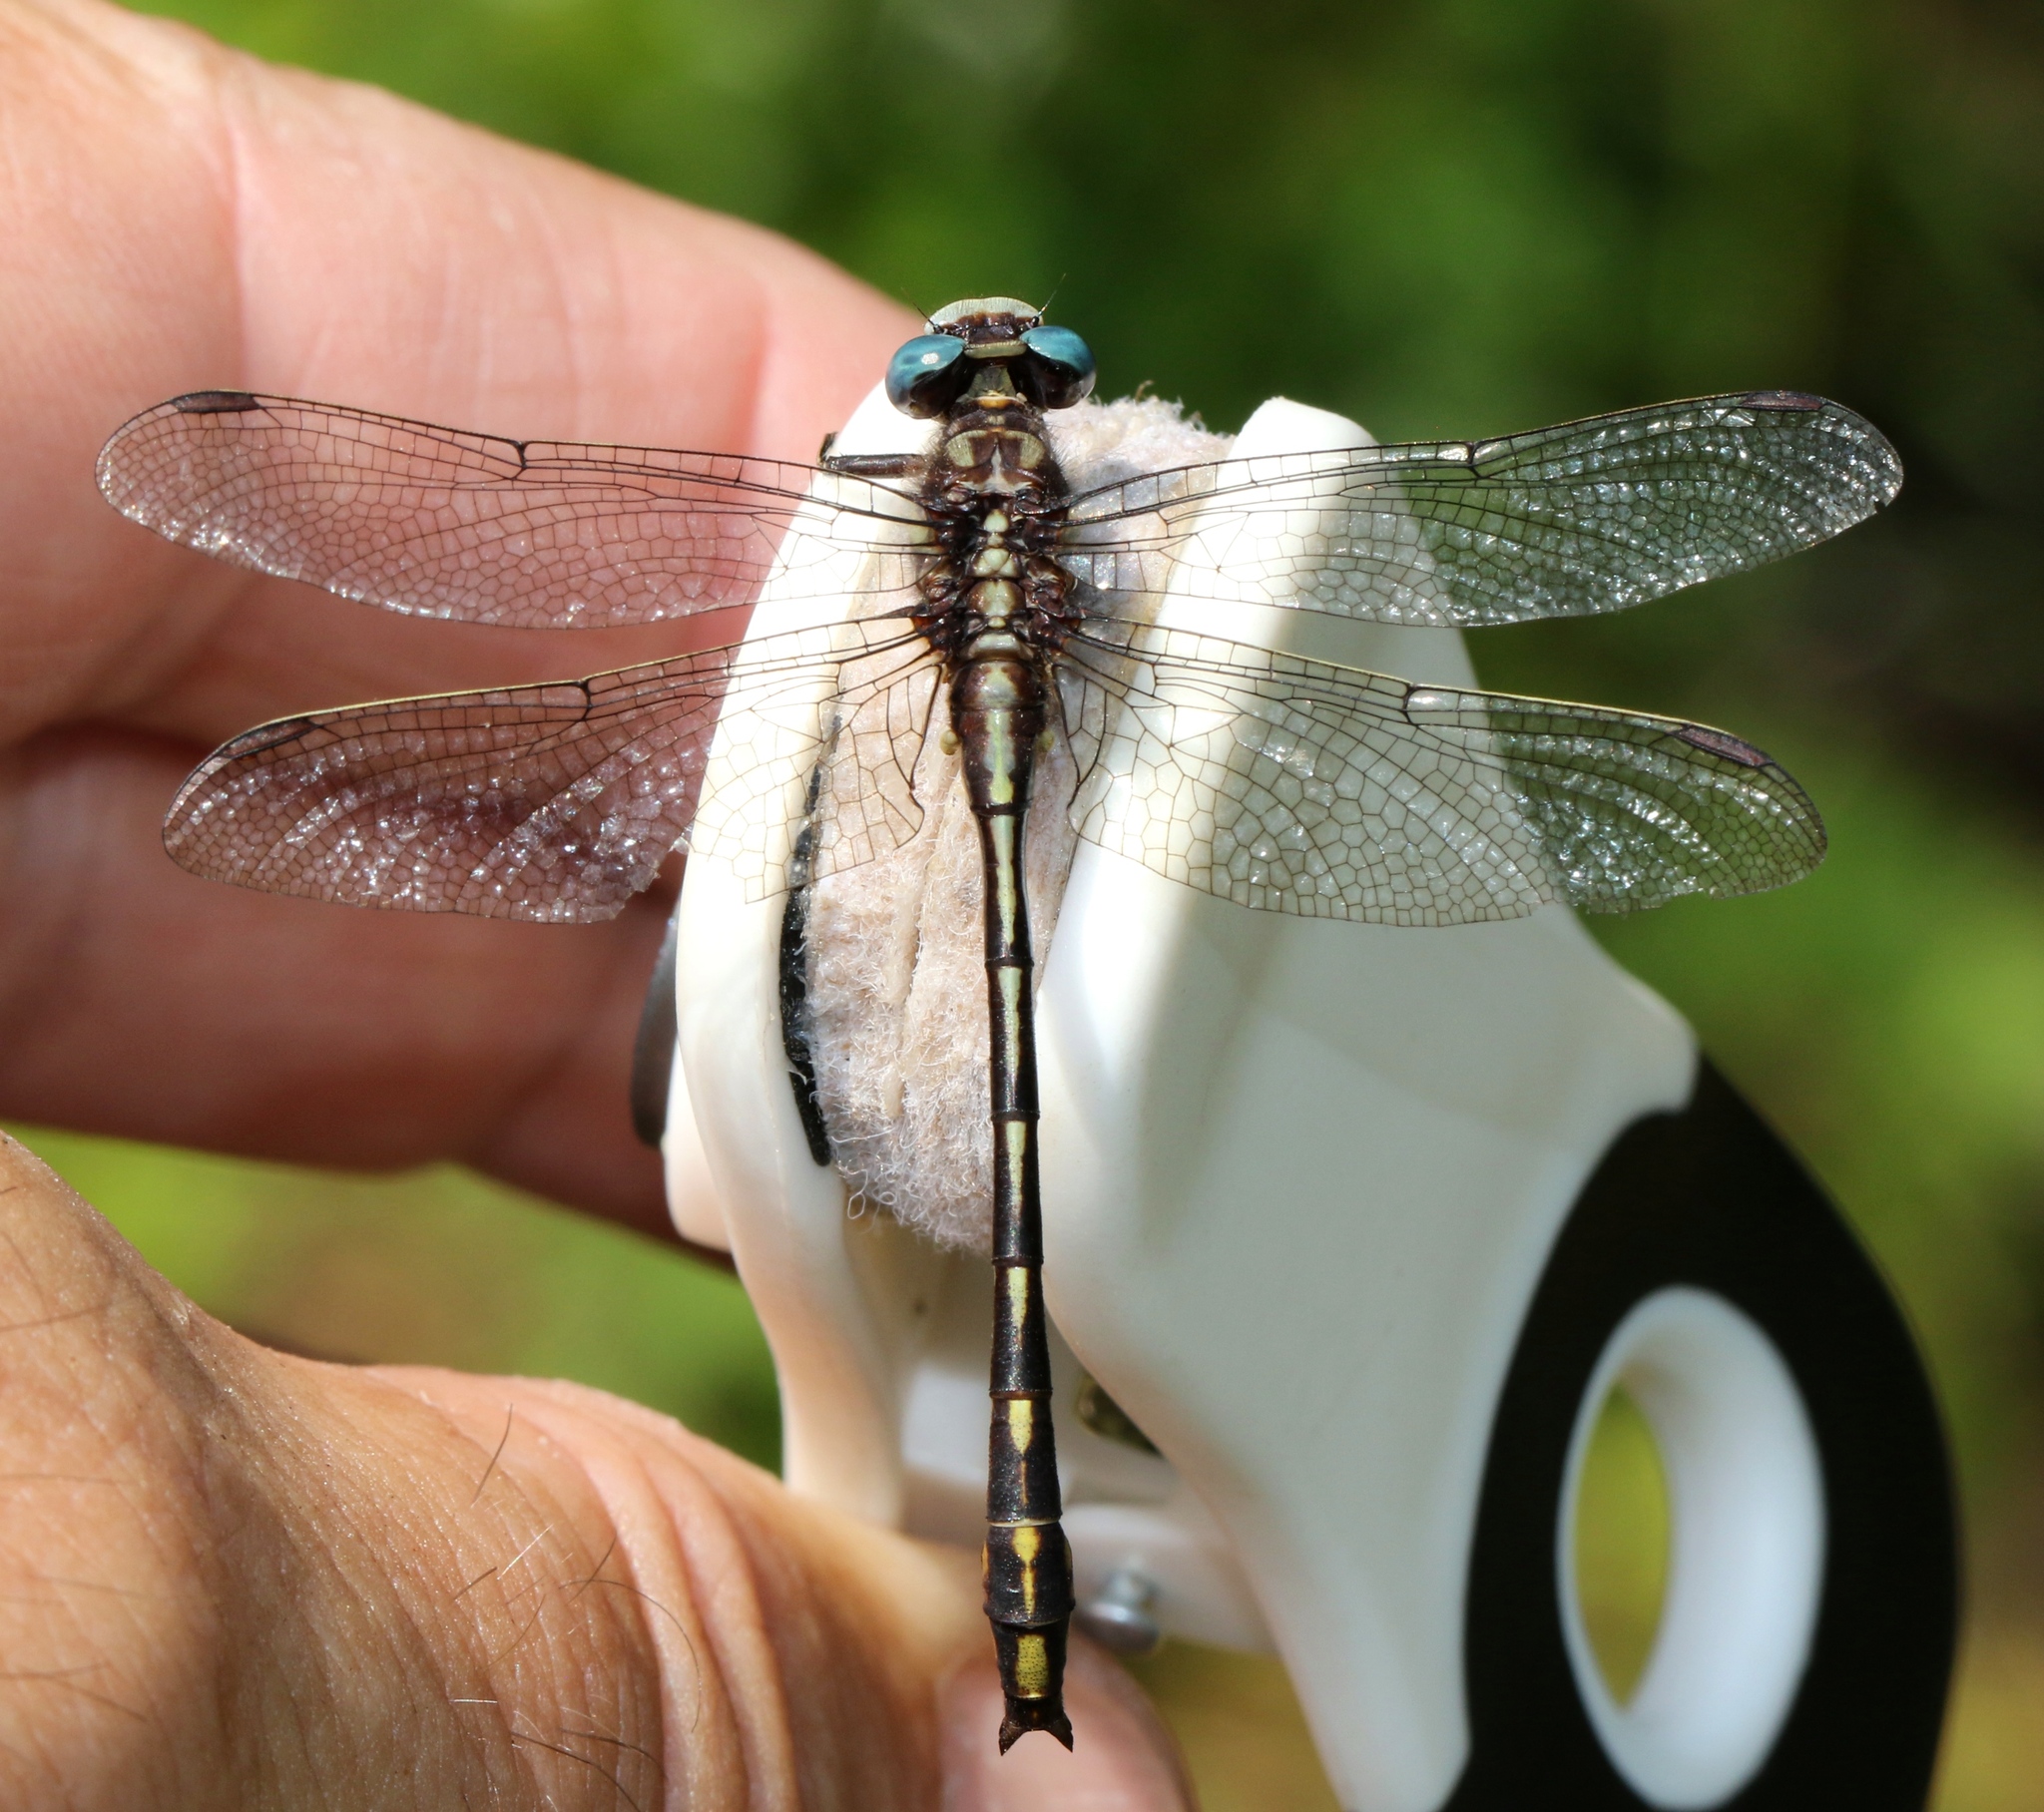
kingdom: Animalia
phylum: Arthropoda
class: Insecta
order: Odonata
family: Gomphidae
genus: Phanogomphus
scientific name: Phanogomphus exilis
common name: Lancet clubtail
